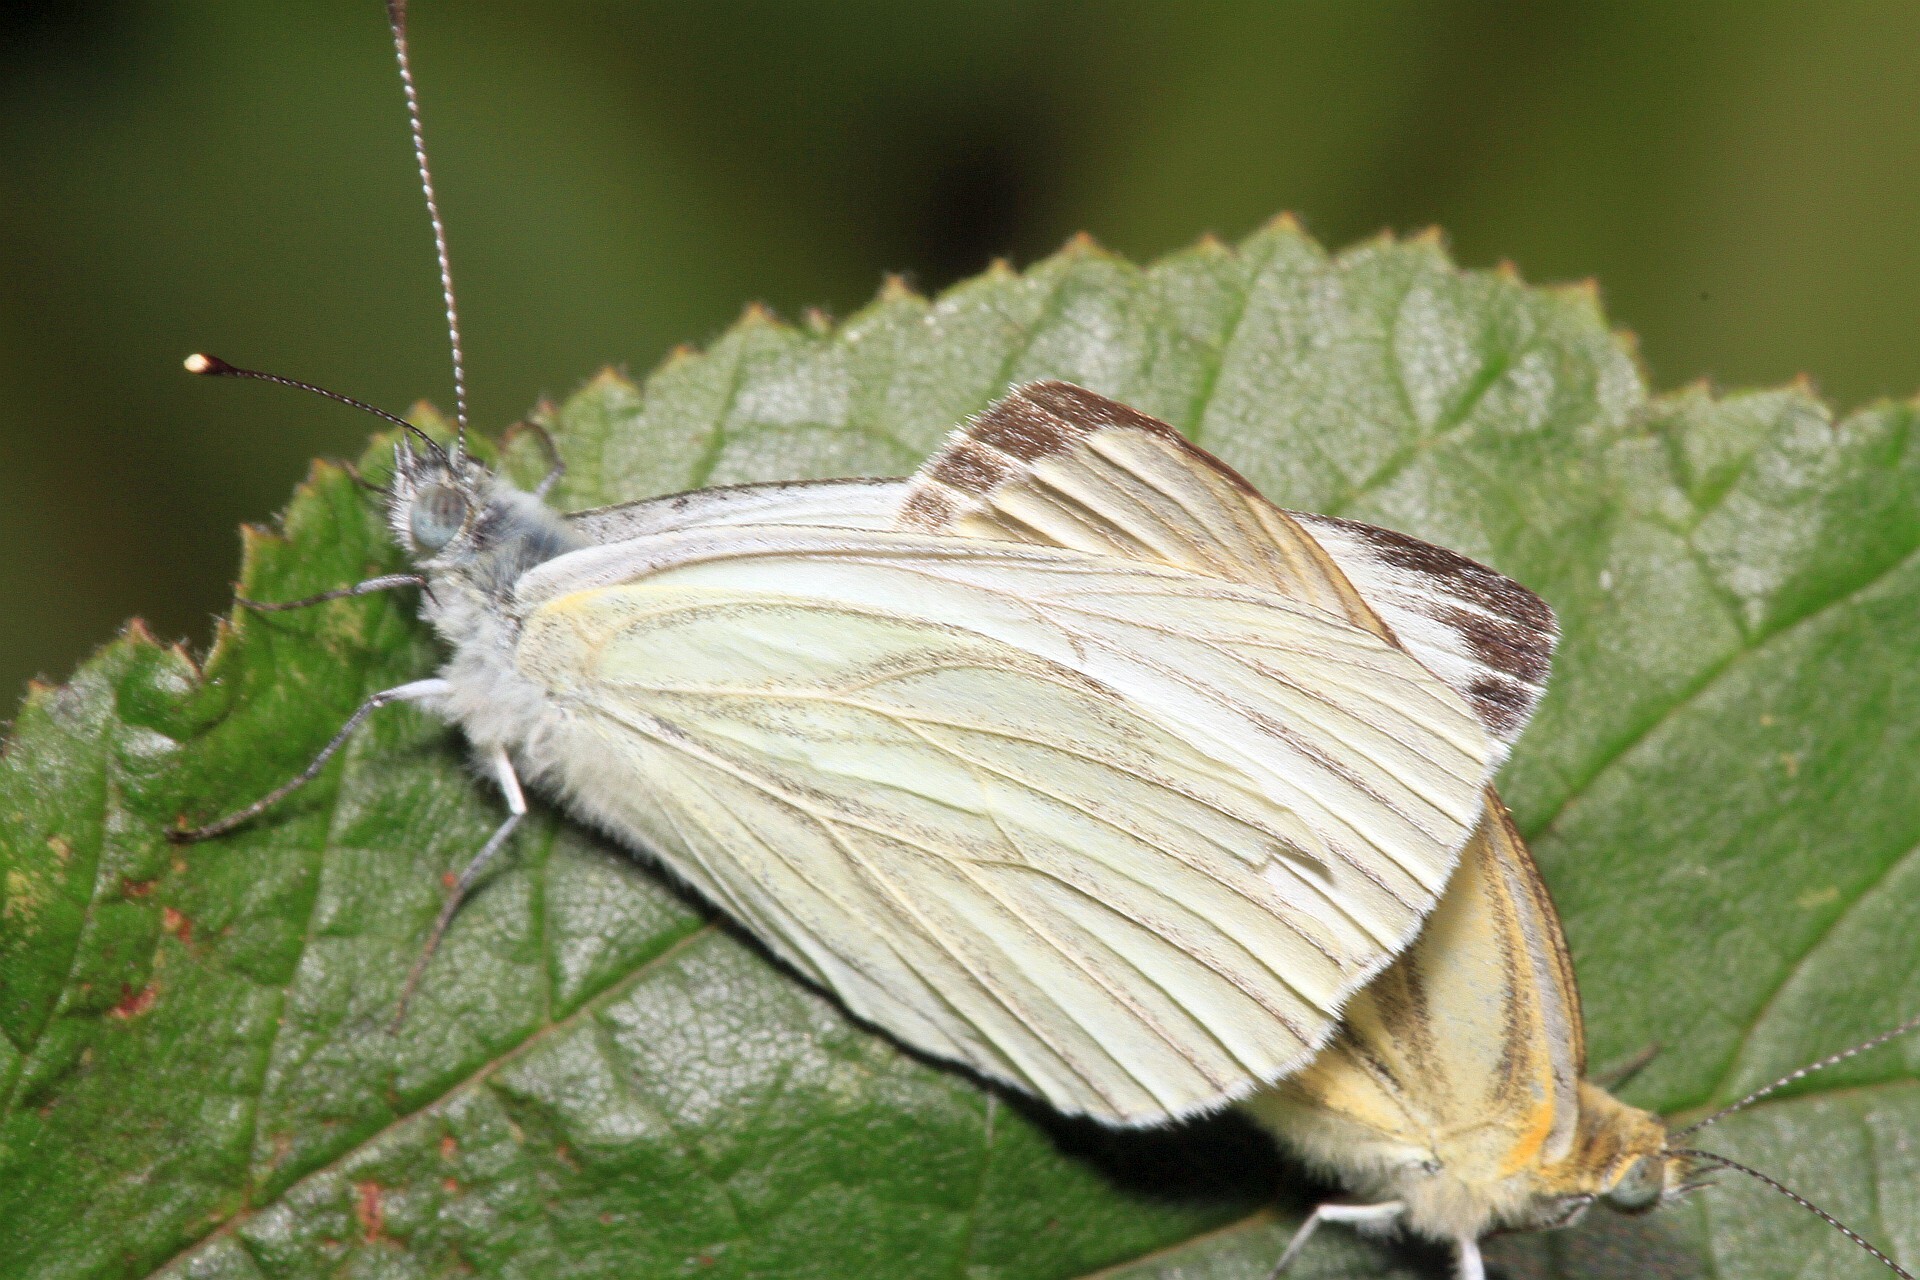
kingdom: Animalia
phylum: Arthropoda
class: Insecta
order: Lepidoptera
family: Pieridae
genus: Pieris
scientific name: Pieris napi
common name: Green-veined white
